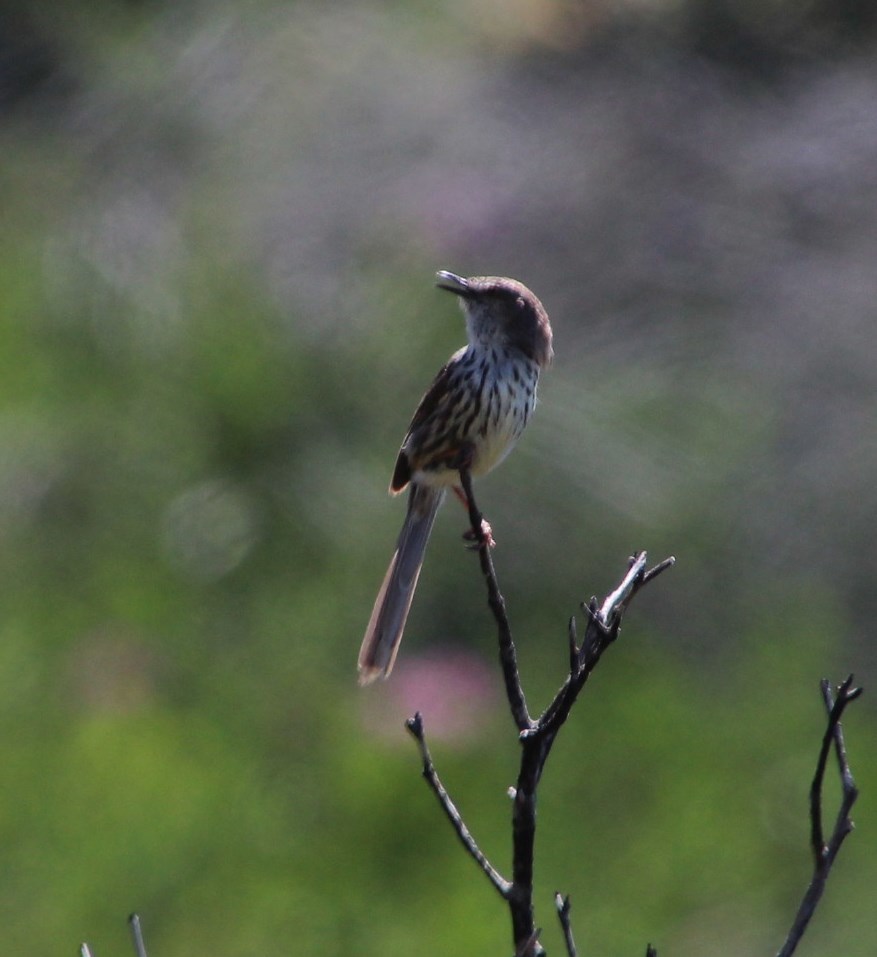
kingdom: Animalia
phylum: Chordata
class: Aves
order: Passeriformes
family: Cisticolidae
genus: Prinia
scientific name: Prinia maculosa
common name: Karoo prinia
